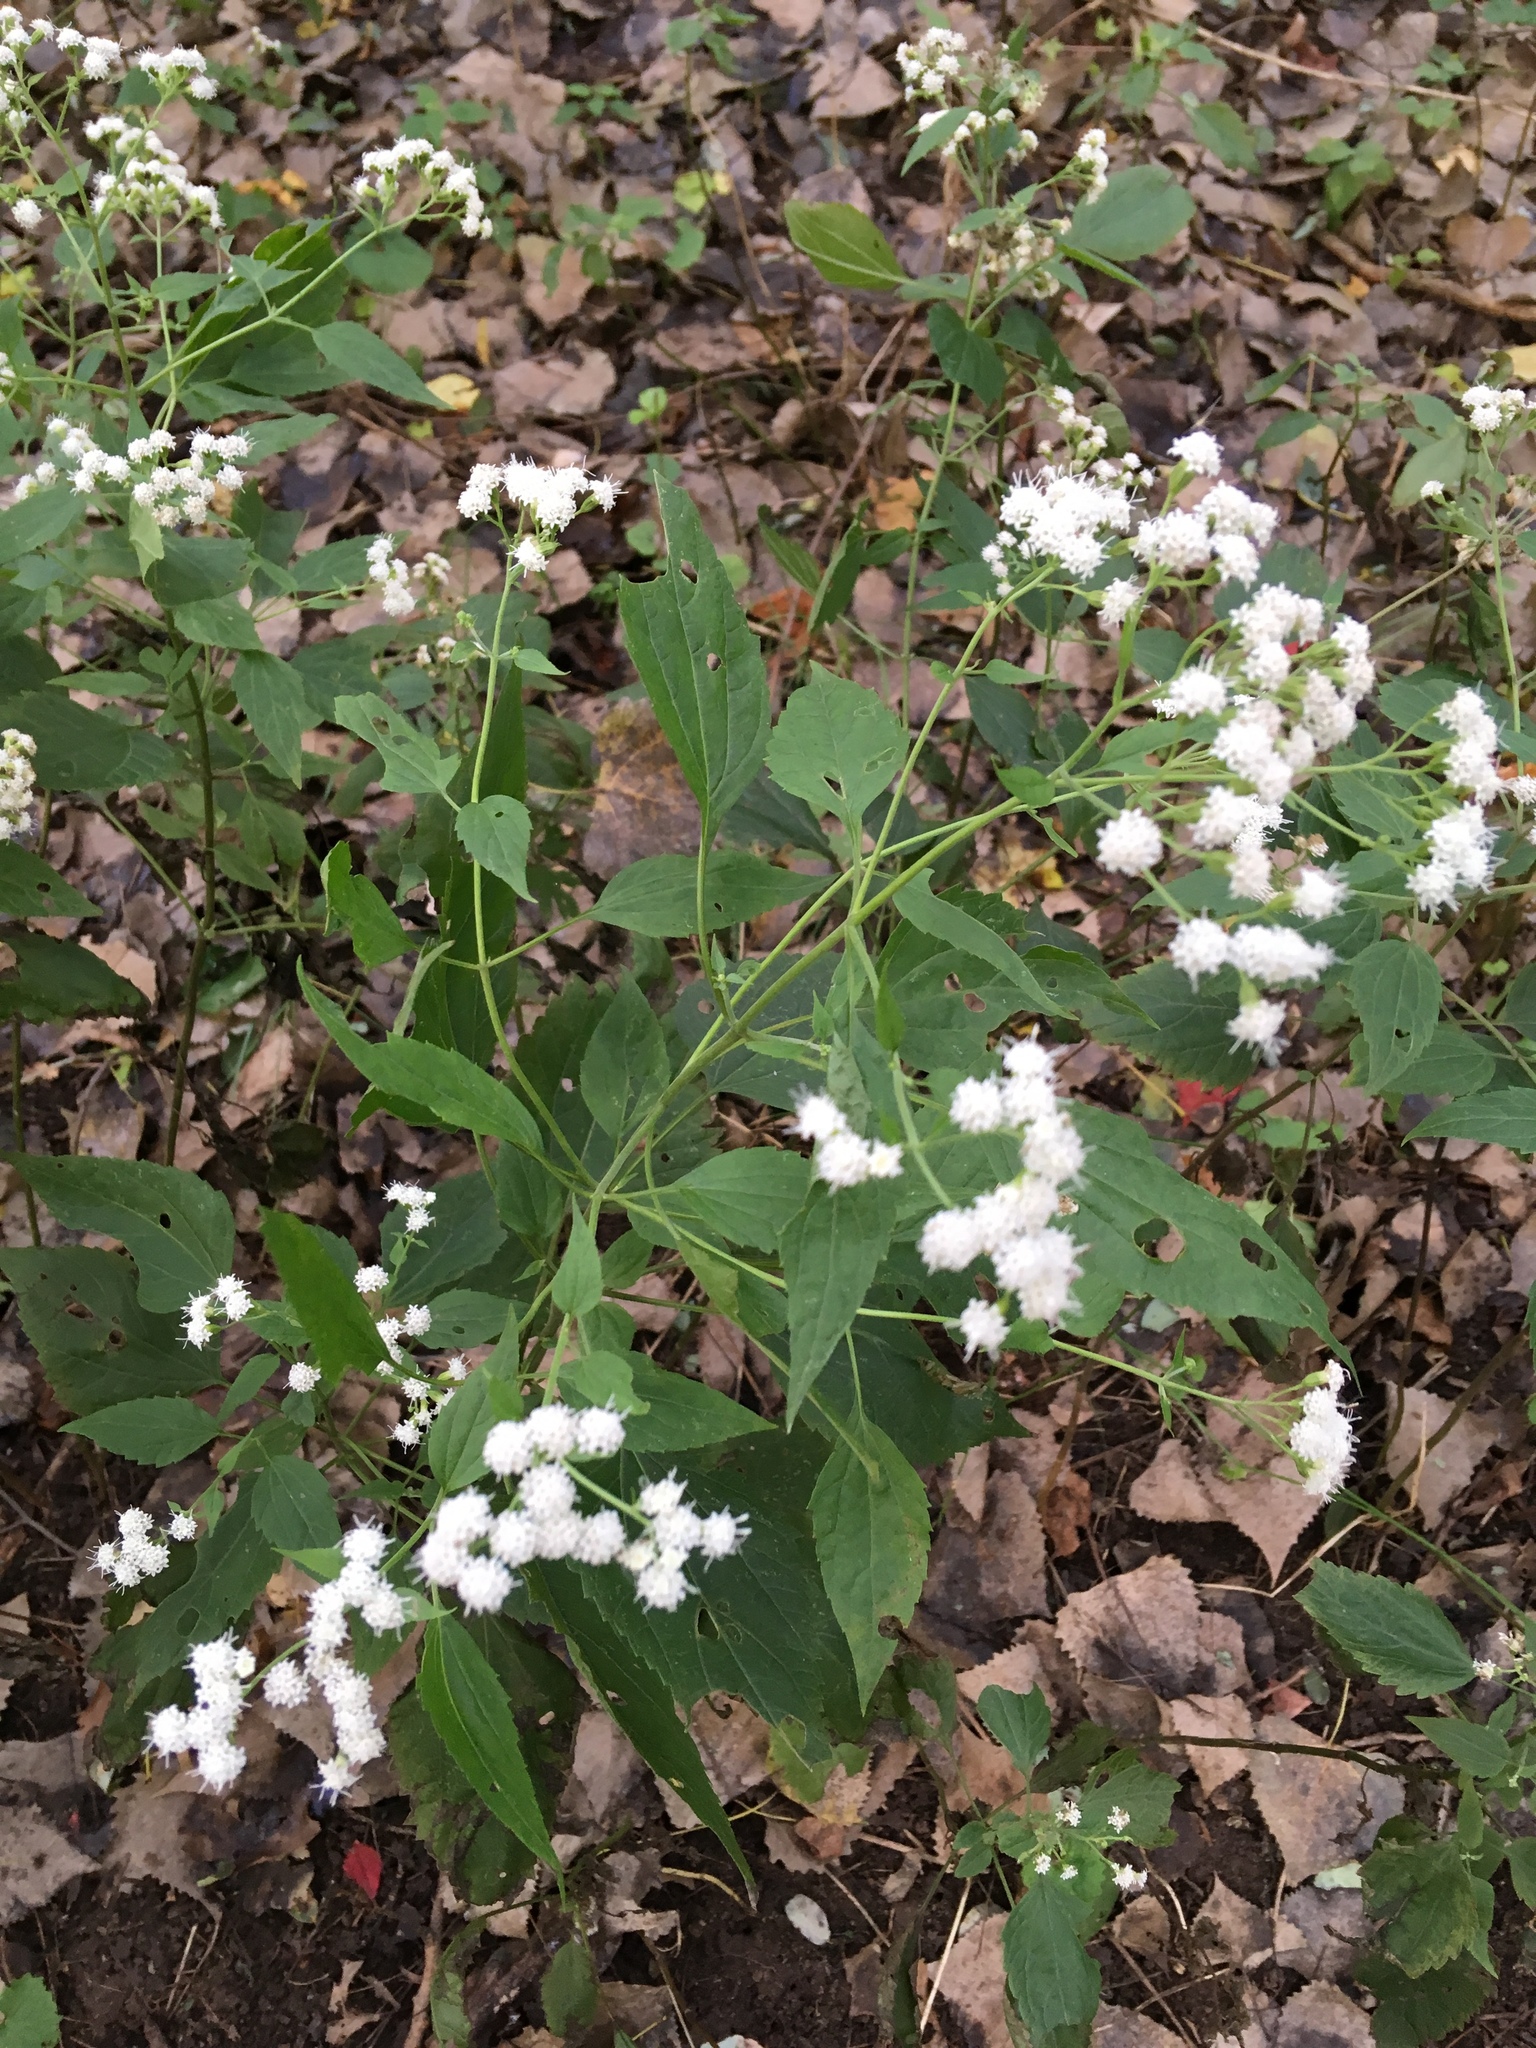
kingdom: Plantae
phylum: Tracheophyta
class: Magnoliopsida
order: Asterales
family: Asteraceae
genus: Ageratina
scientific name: Ageratina altissima
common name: White snakeroot
